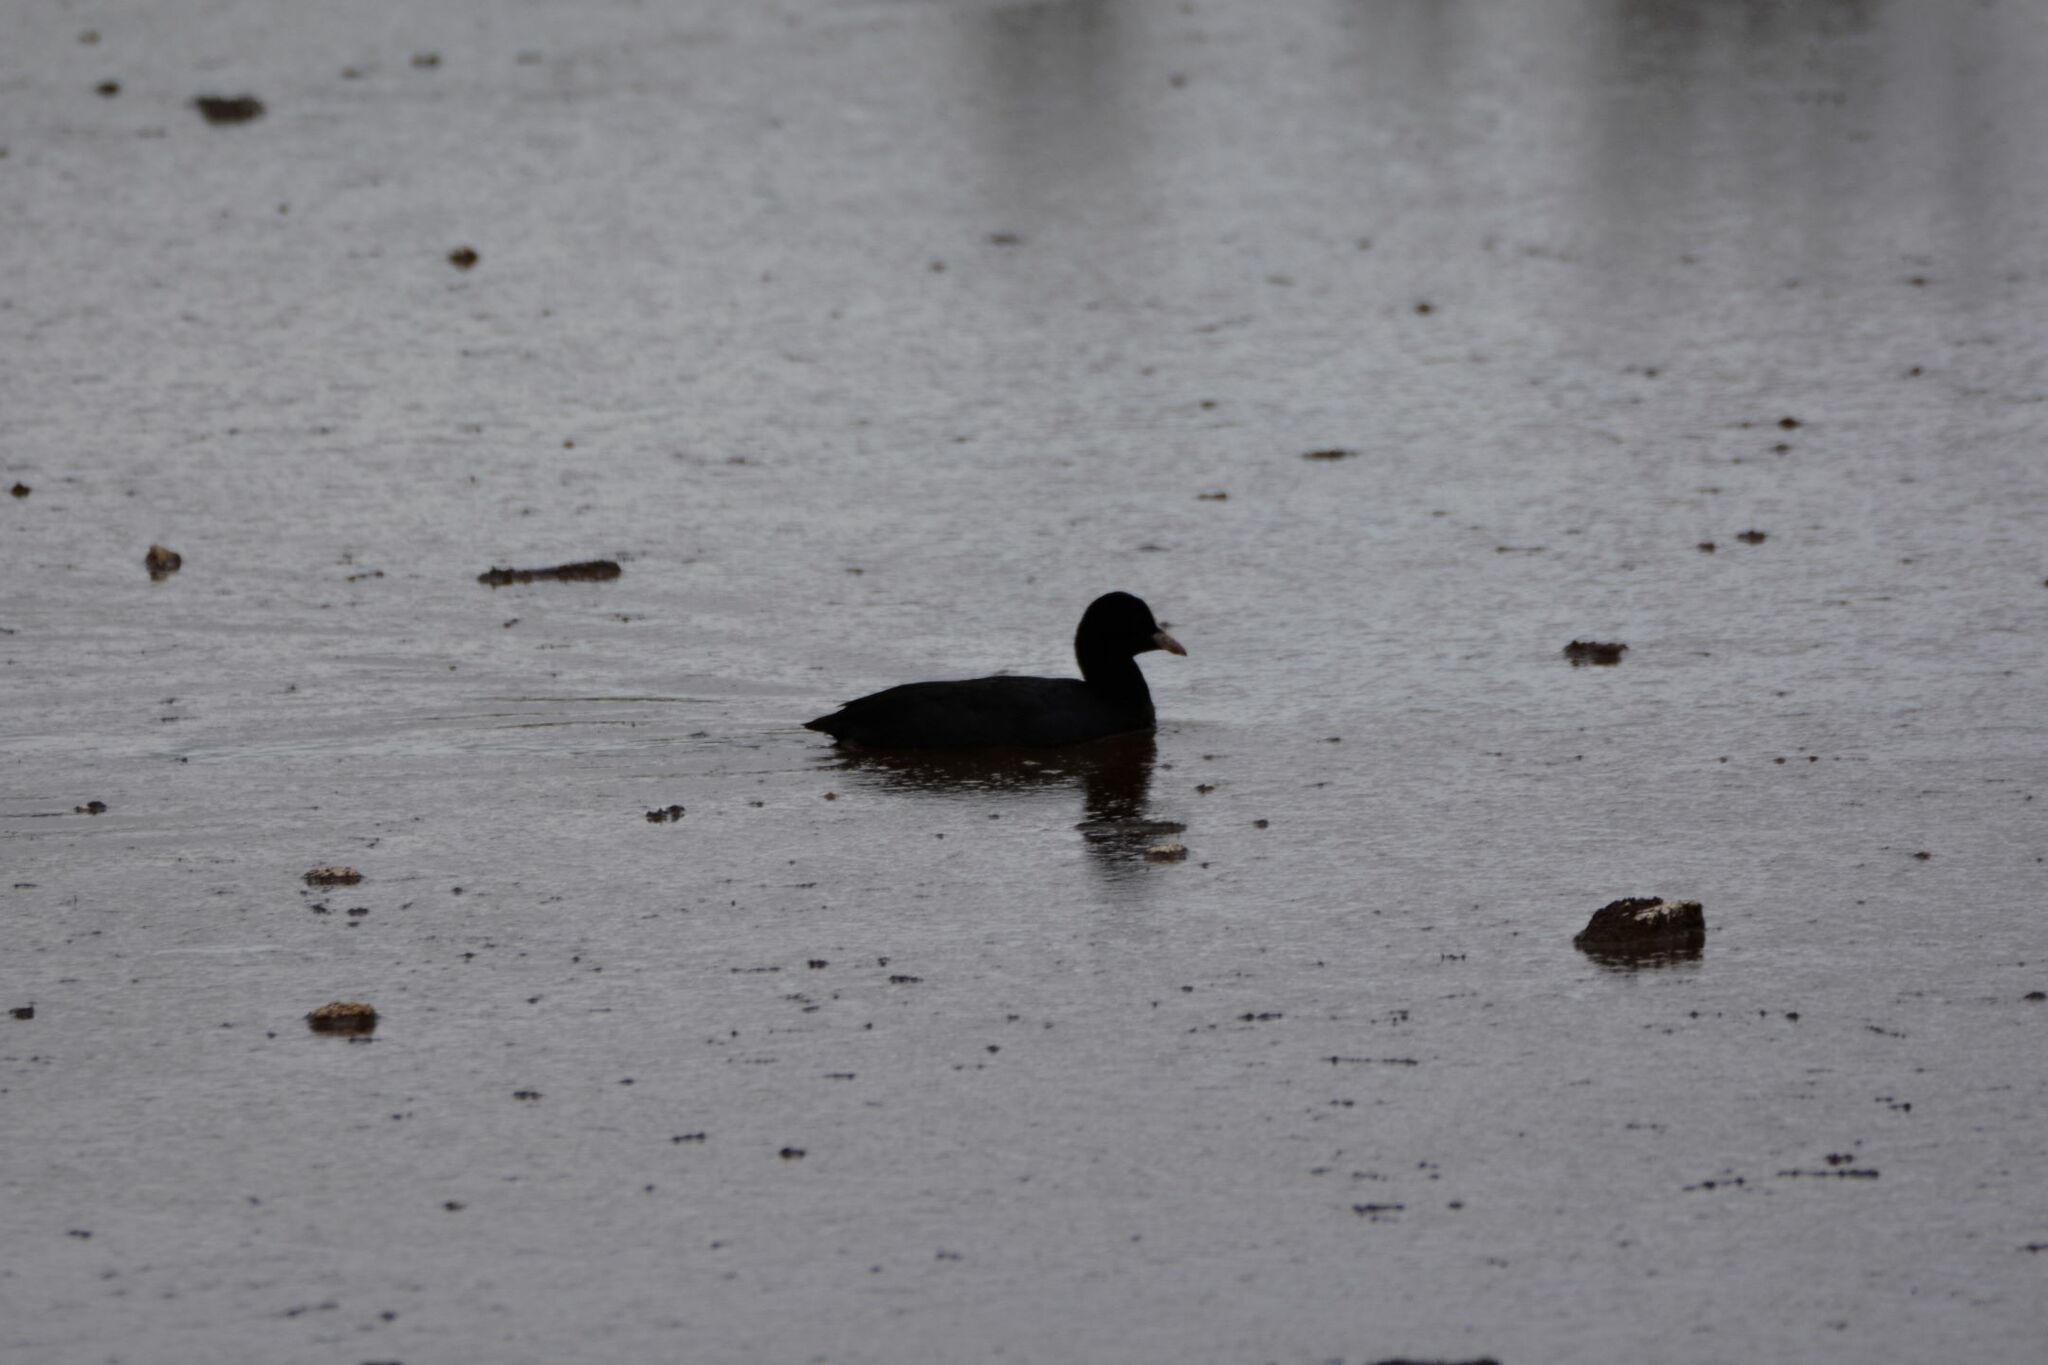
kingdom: Animalia
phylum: Chordata
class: Aves
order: Gruiformes
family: Rallidae
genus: Fulica
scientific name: Fulica atra
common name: Eurasian coot
